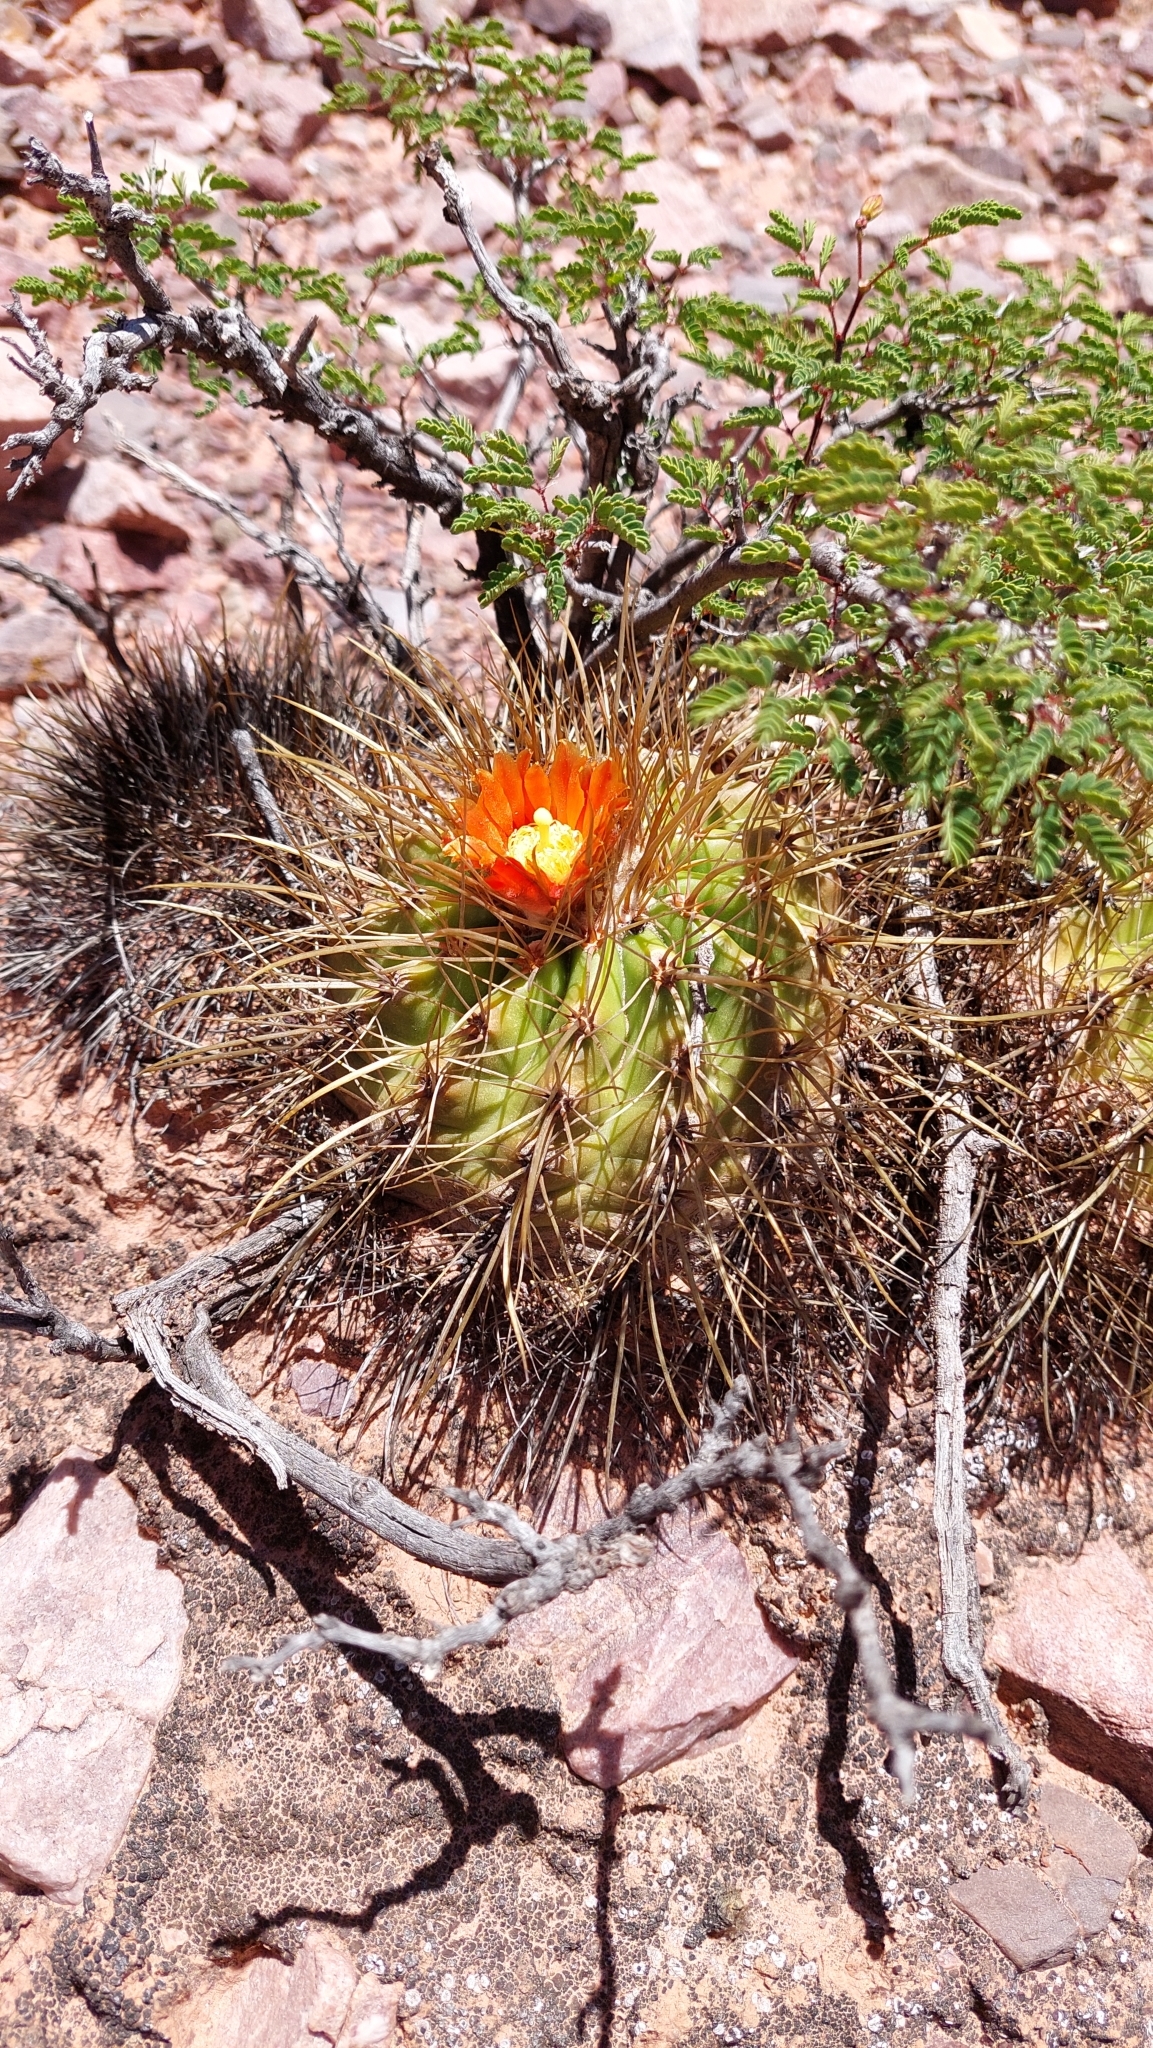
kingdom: Plantae
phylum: Tracheophyta
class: Magnoliopsida
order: Caryophyllales
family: Cactaceae
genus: Parodia
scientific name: Parodia maassii
